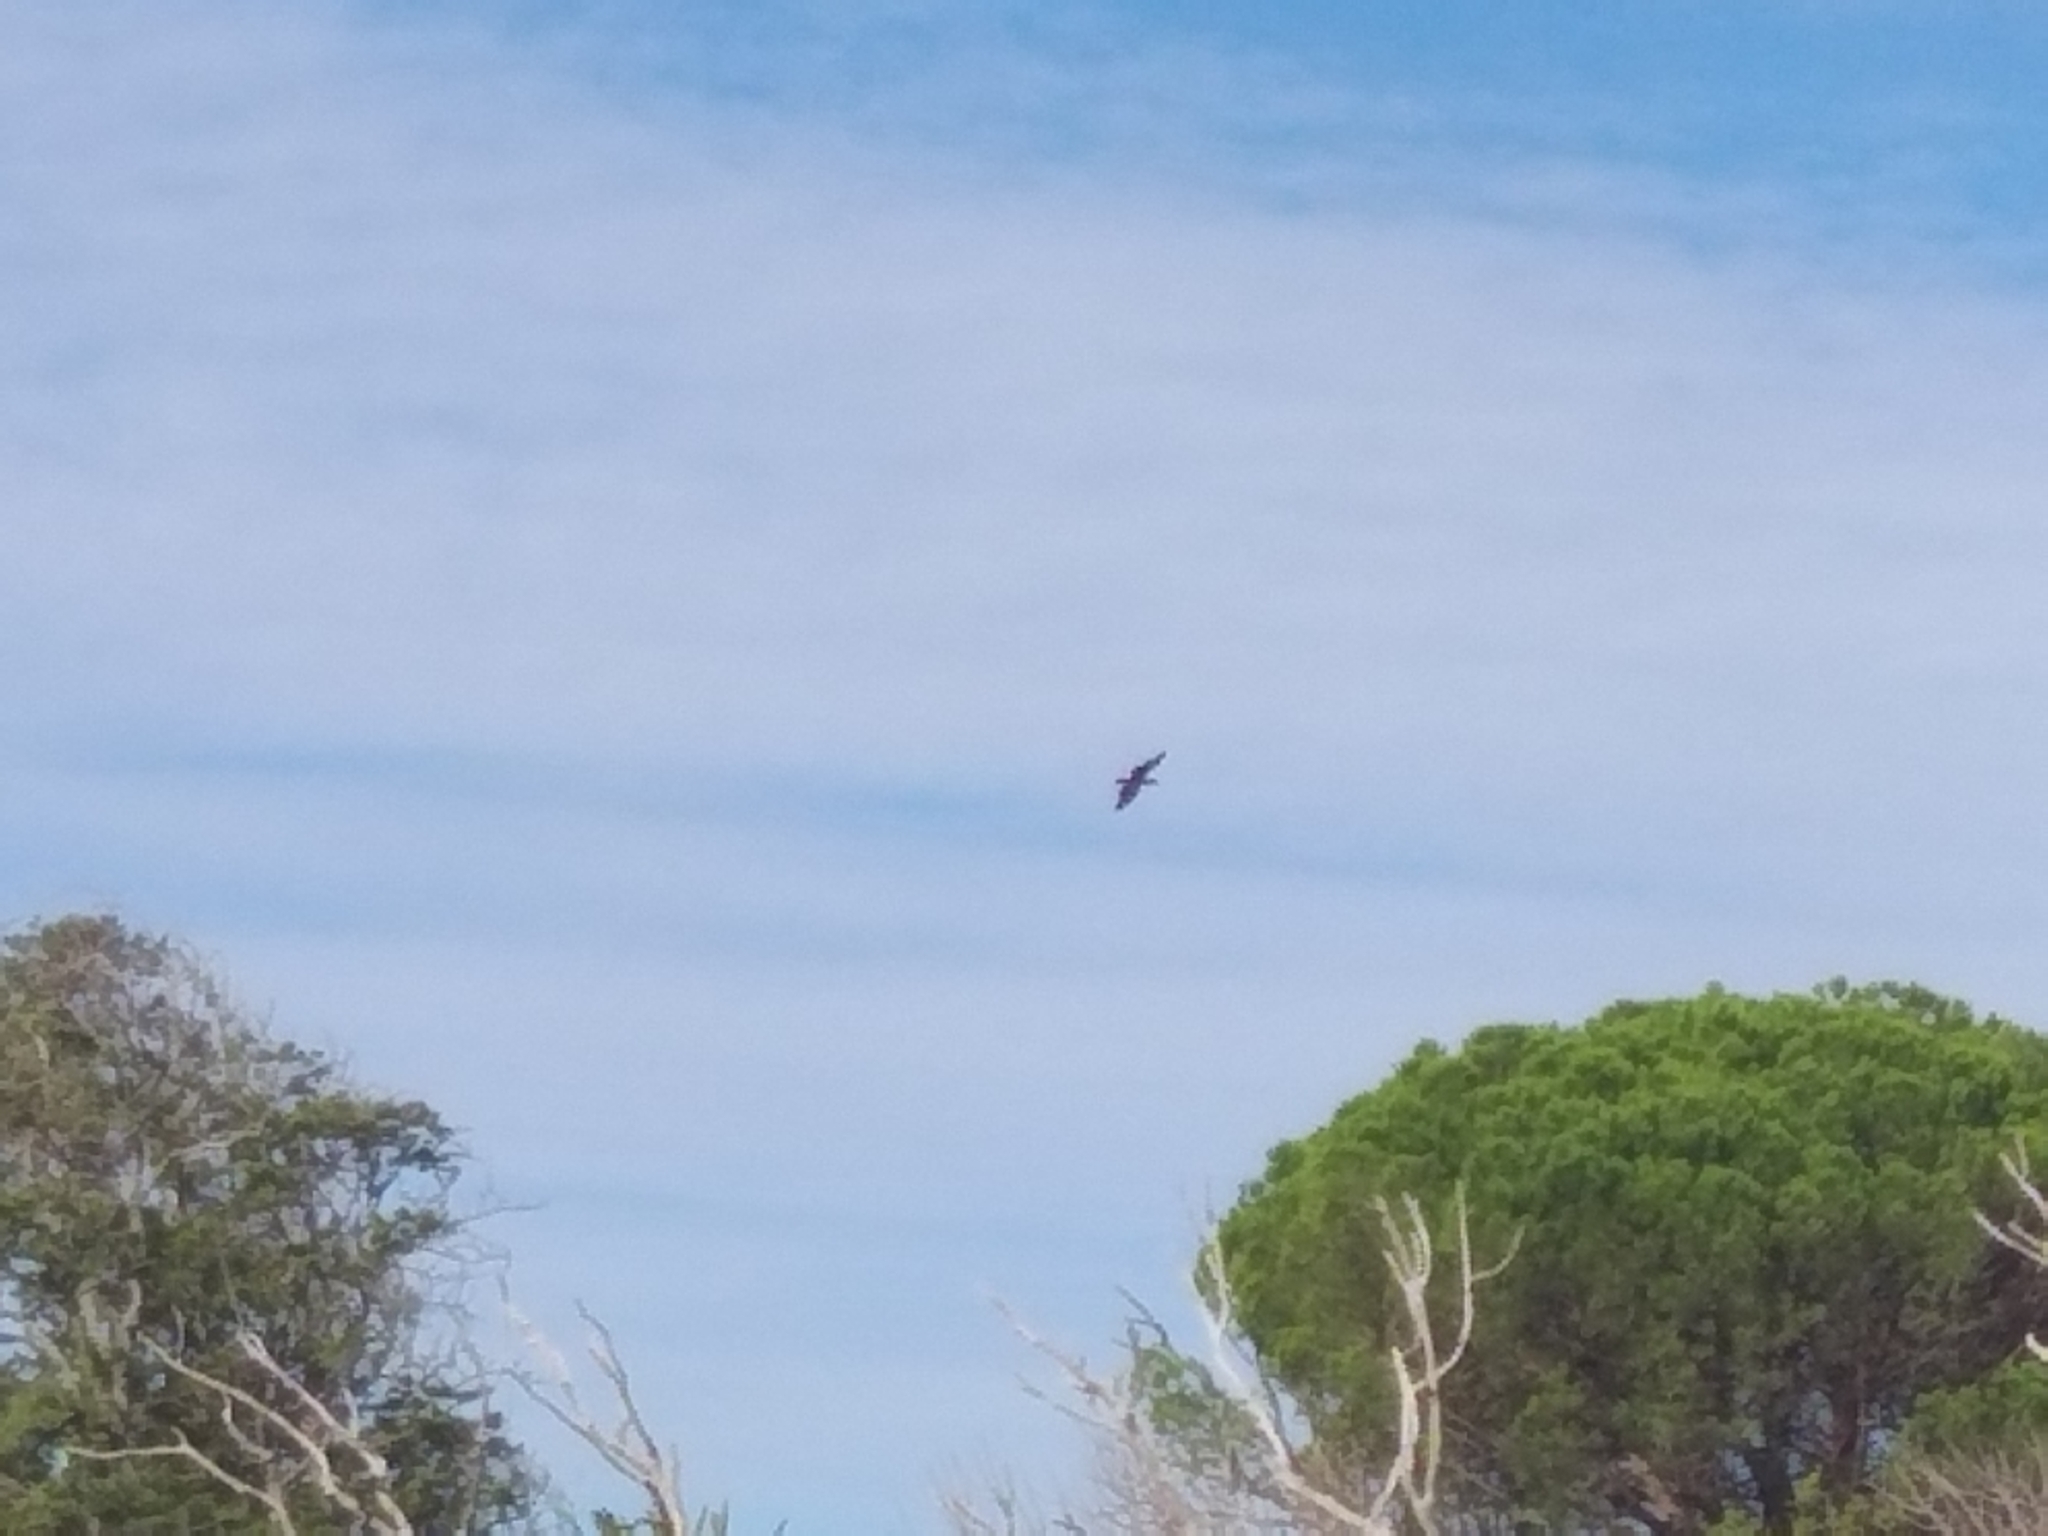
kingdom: Animalia
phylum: Chordata
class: Aves
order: Pelecaniformes
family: Scopidae
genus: Scopus
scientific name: Scopus umbretta
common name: Hamerkop
